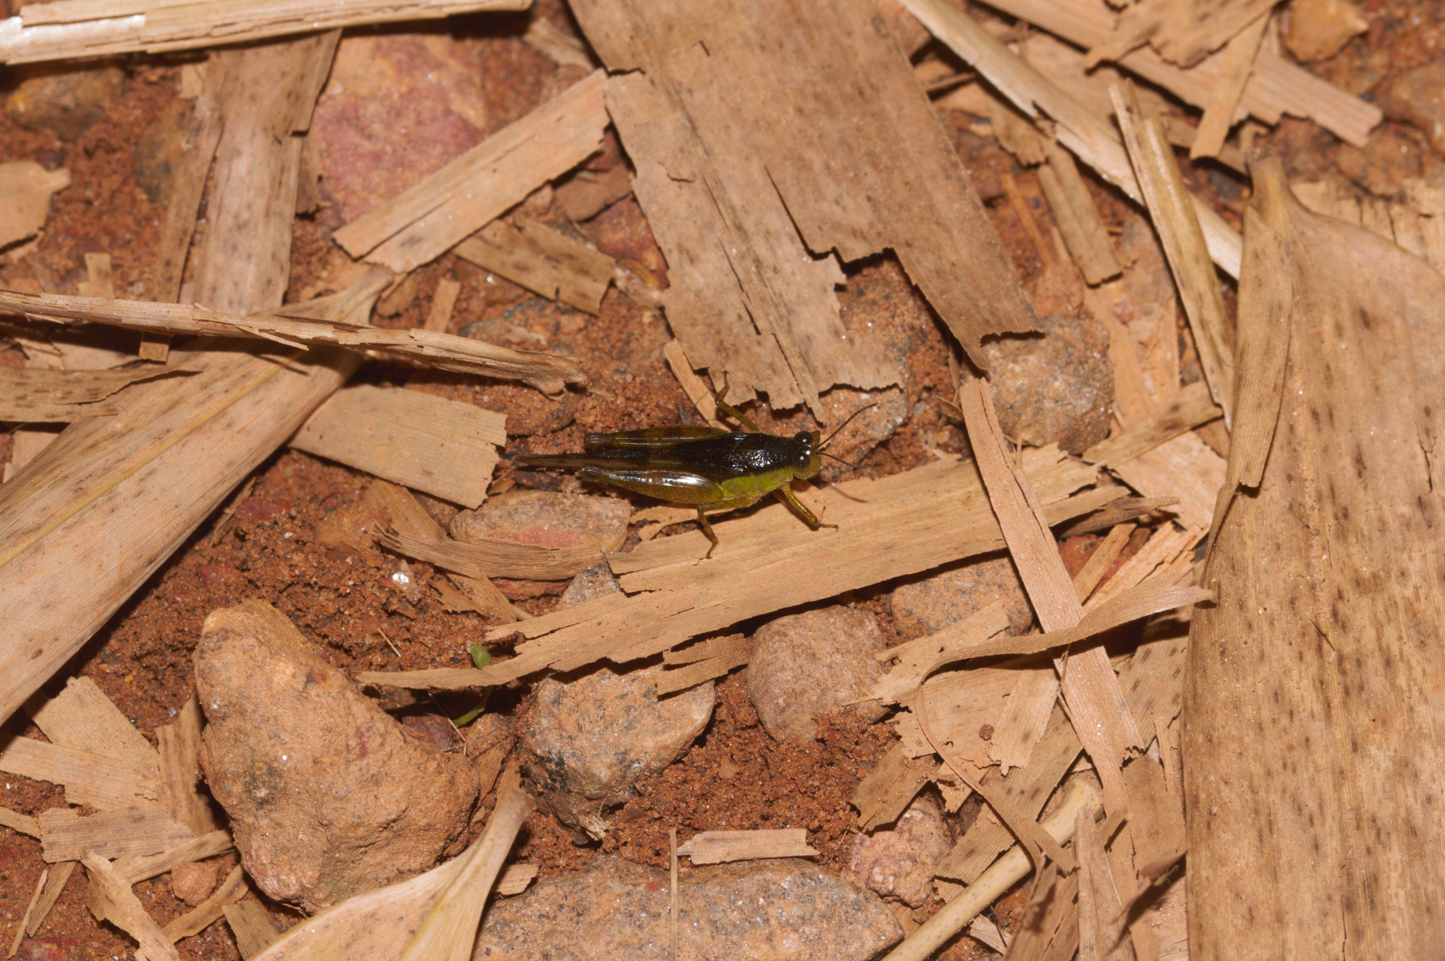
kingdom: Animalia
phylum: Arthropoda
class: Insecta
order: Orthoptera
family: Acrididae
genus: Paulinia
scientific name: Paulinia acuminata
